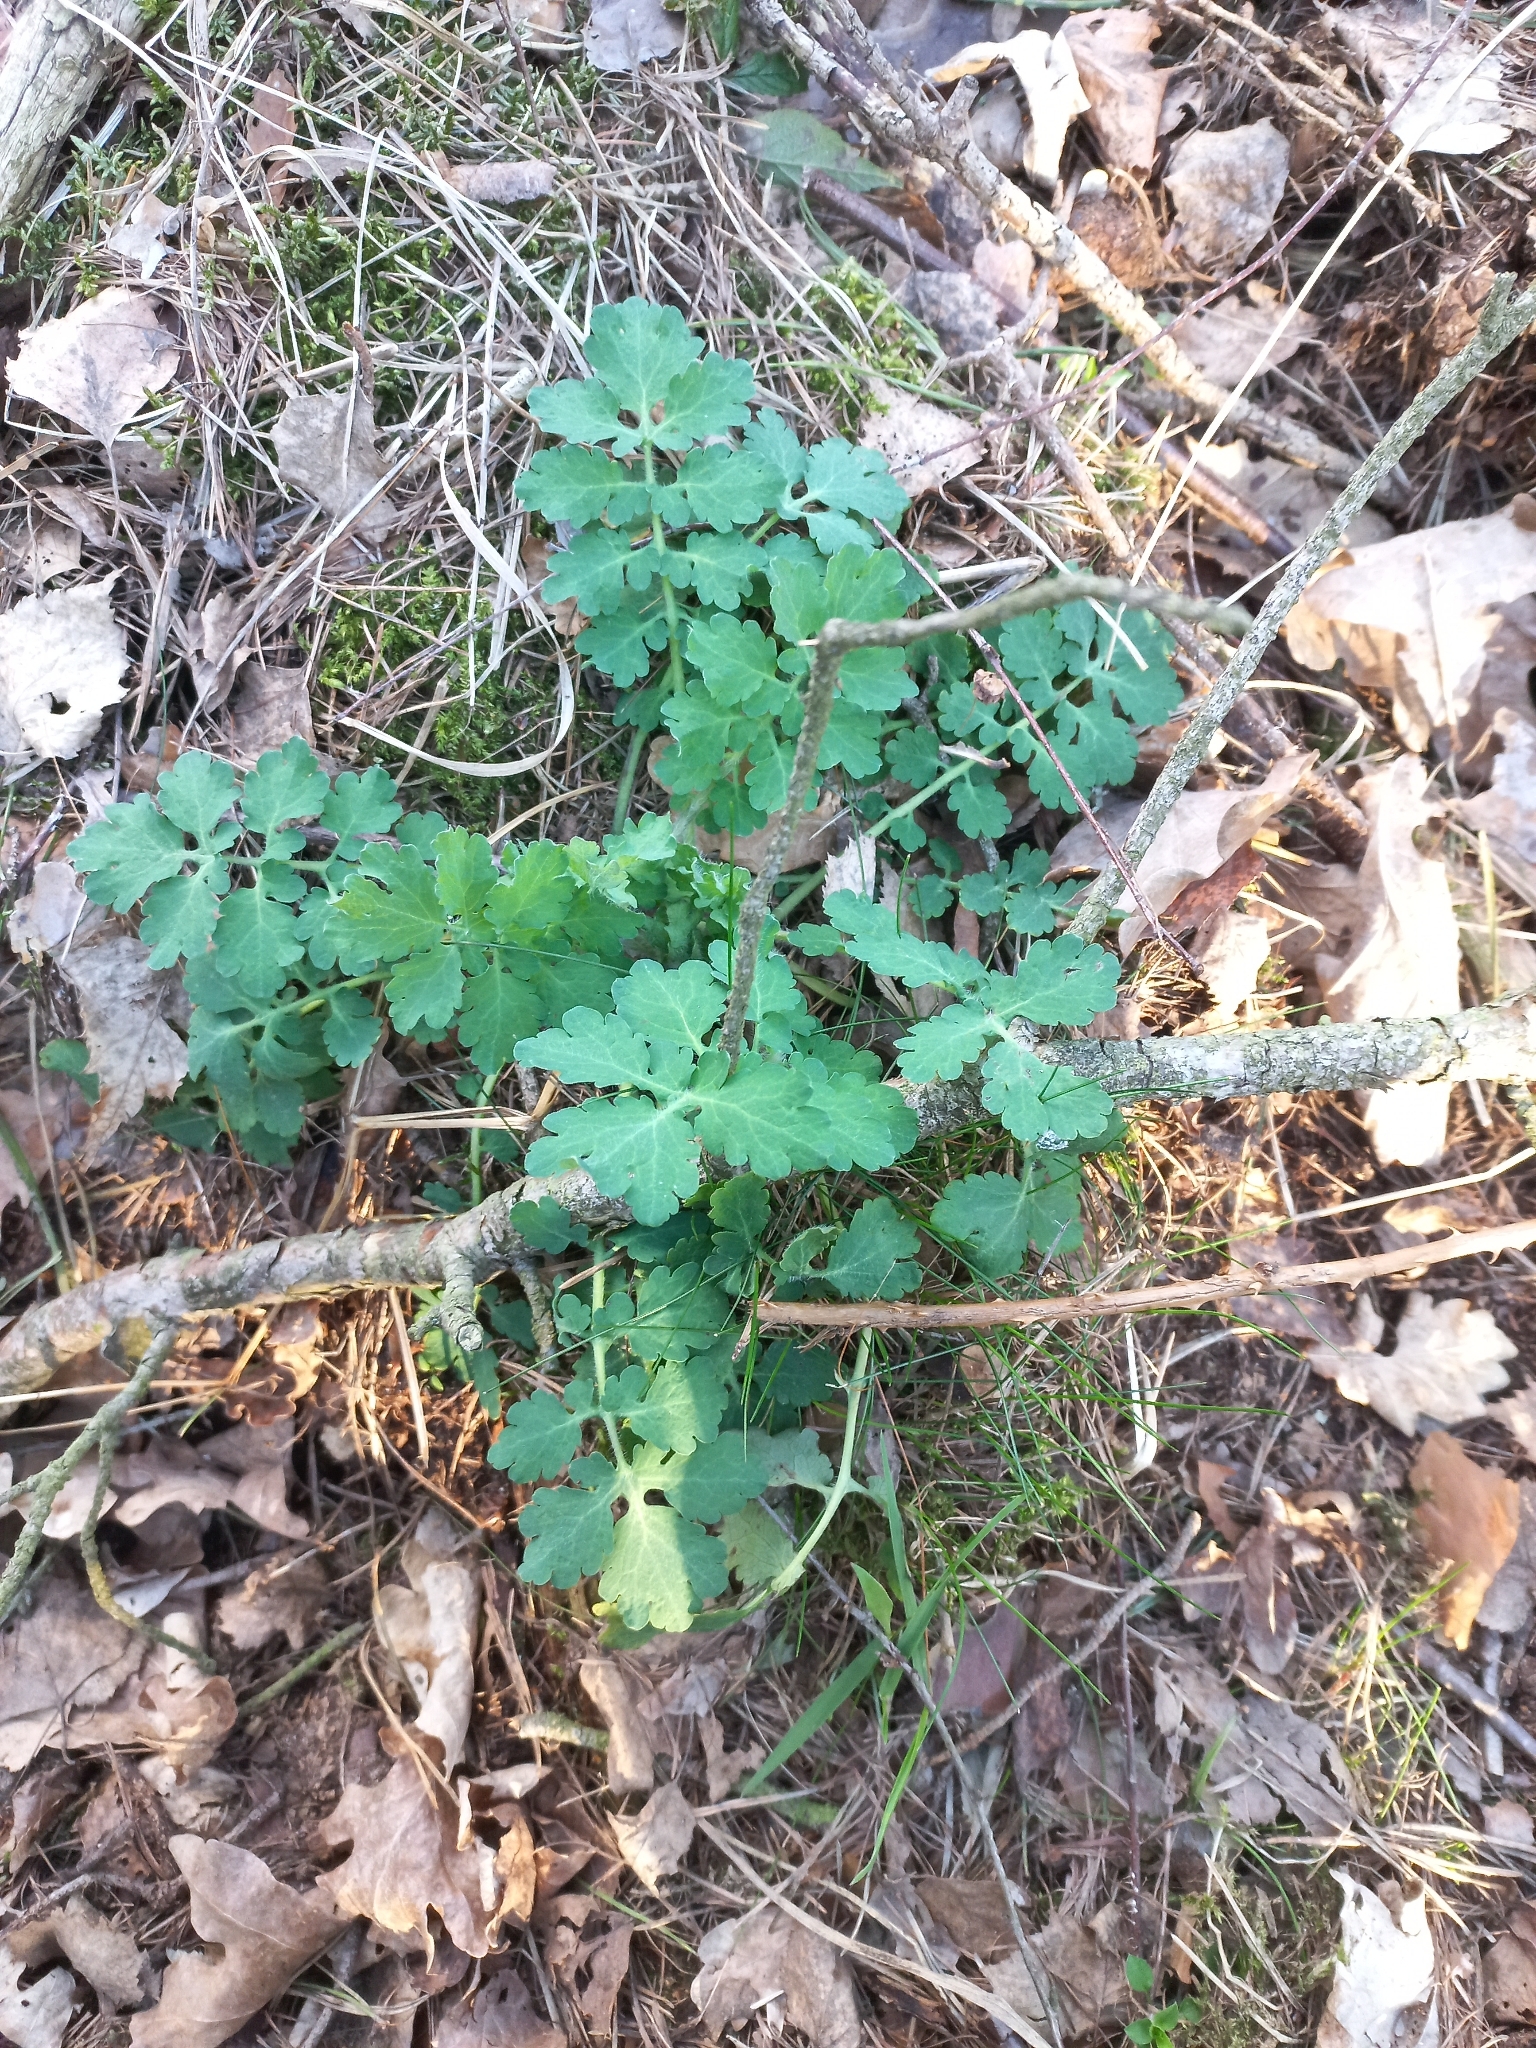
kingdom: Plantae
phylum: Tracheophyta
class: Magnoliopsida
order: Ranunculales
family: Papaveraceae
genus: Chelidonium
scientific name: Chelidonium majus
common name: Greater celandine
